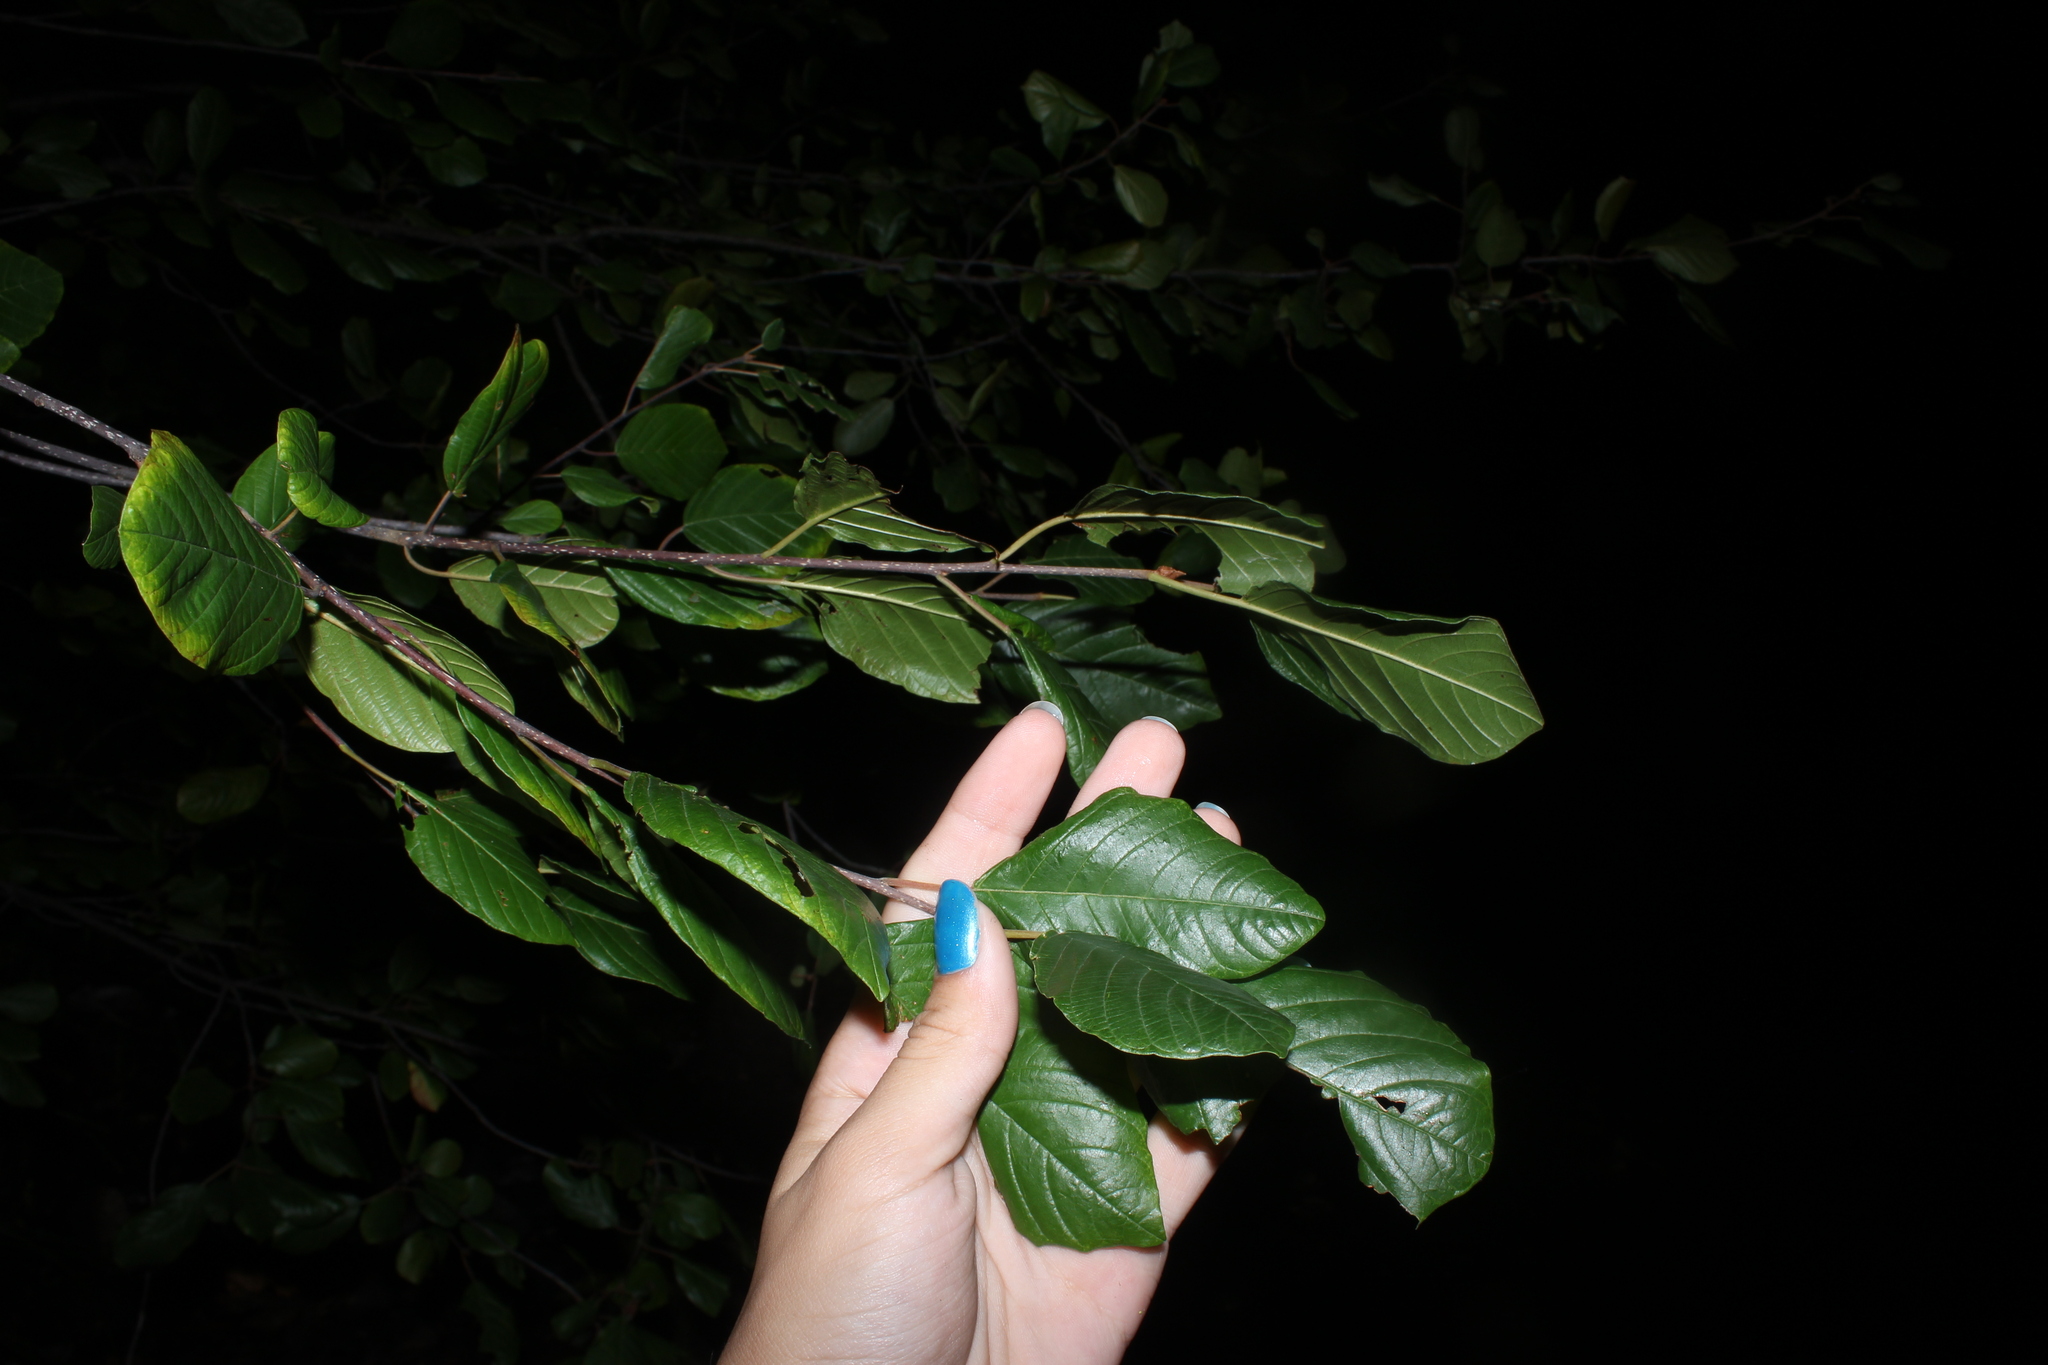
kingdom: Plantae
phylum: Tracheophyta
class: Magnoliopsida
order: Rosales
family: Rhamnaceae
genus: Frangula
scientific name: Frangula alnus
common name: Alder buckthorn
